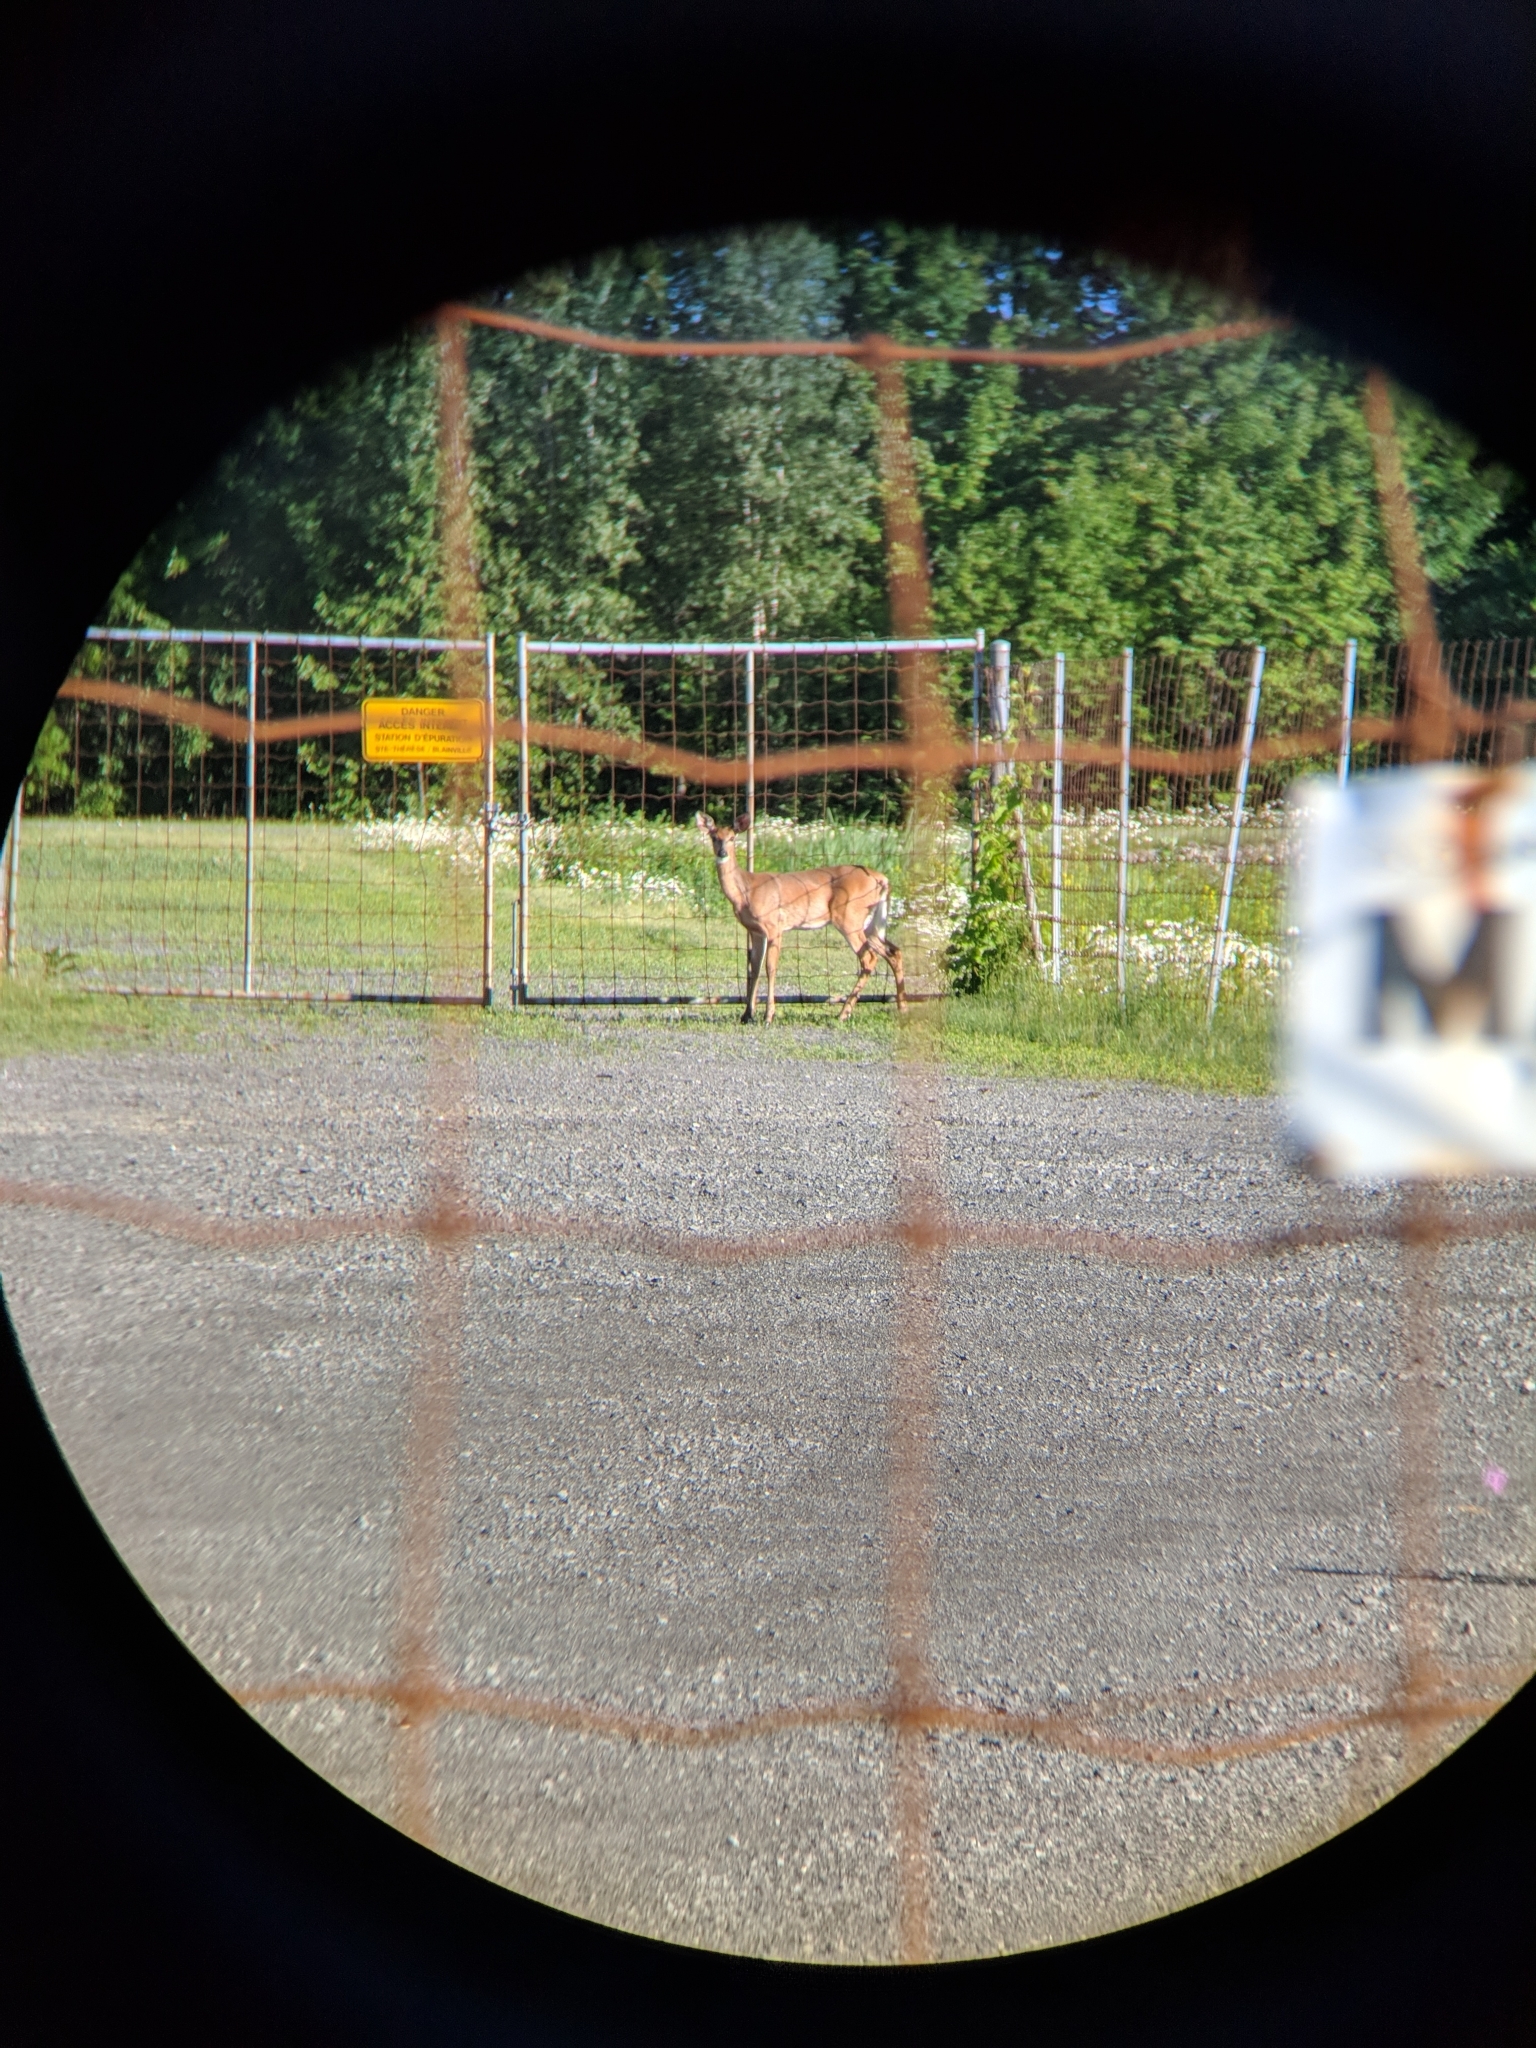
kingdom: Animalia
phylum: Chordata
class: Mammalia
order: Artiodactyla
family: Cervidae
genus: Odocoileus
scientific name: Odocoileus virginianus
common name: White-tailed deer
